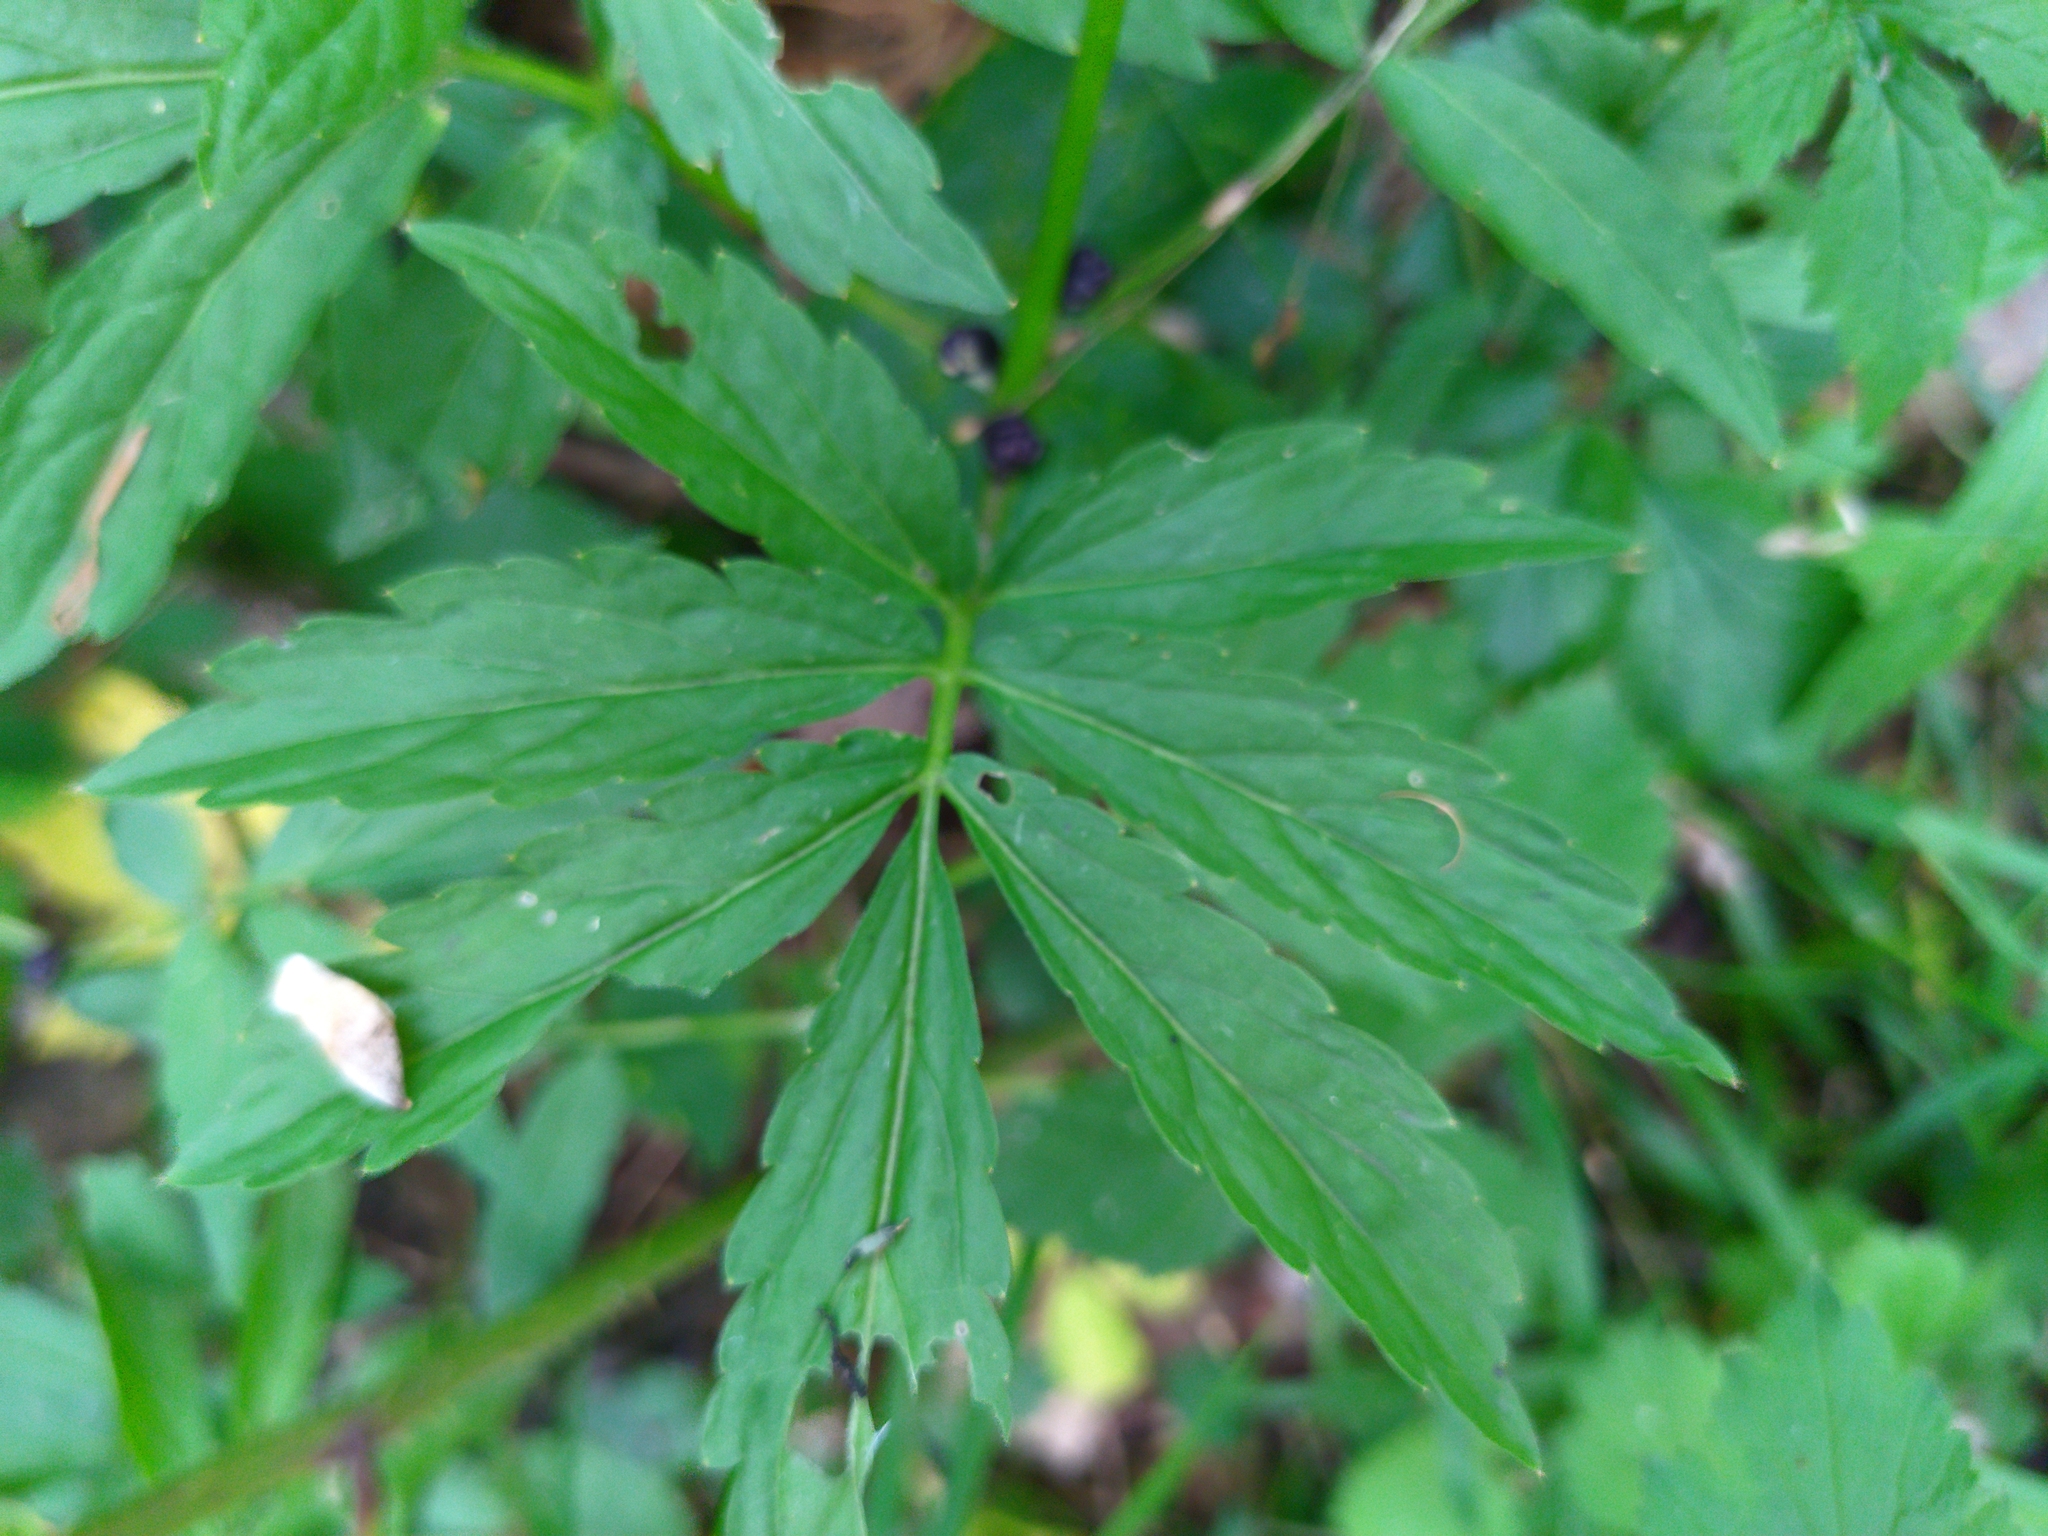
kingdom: Plantae
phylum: Tracheophyta
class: Magnoliopsida
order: Brassicales
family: Brassicaceae
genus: Cardamine
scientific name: Cardamine bulbifera
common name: Coralroot bittercress
